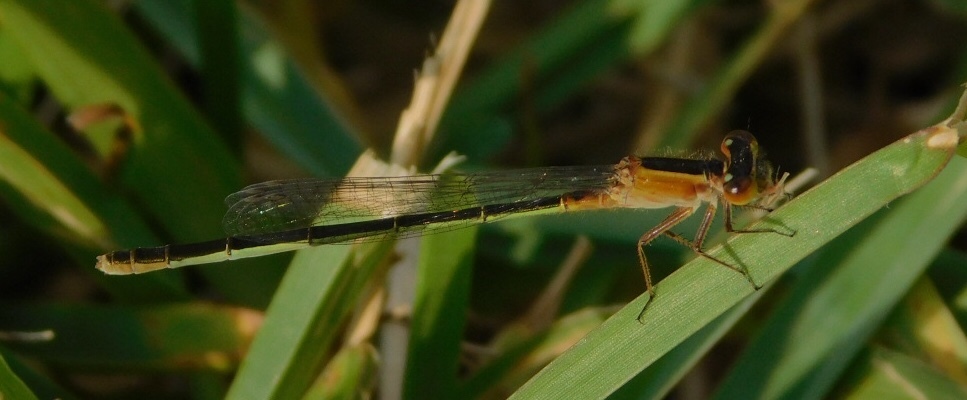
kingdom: Animalia
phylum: Arthropoda
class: Insecta
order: Odonata
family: Coenagrionidae
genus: Ischnura
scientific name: Ischnura ramburii
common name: Rambur's forktail
